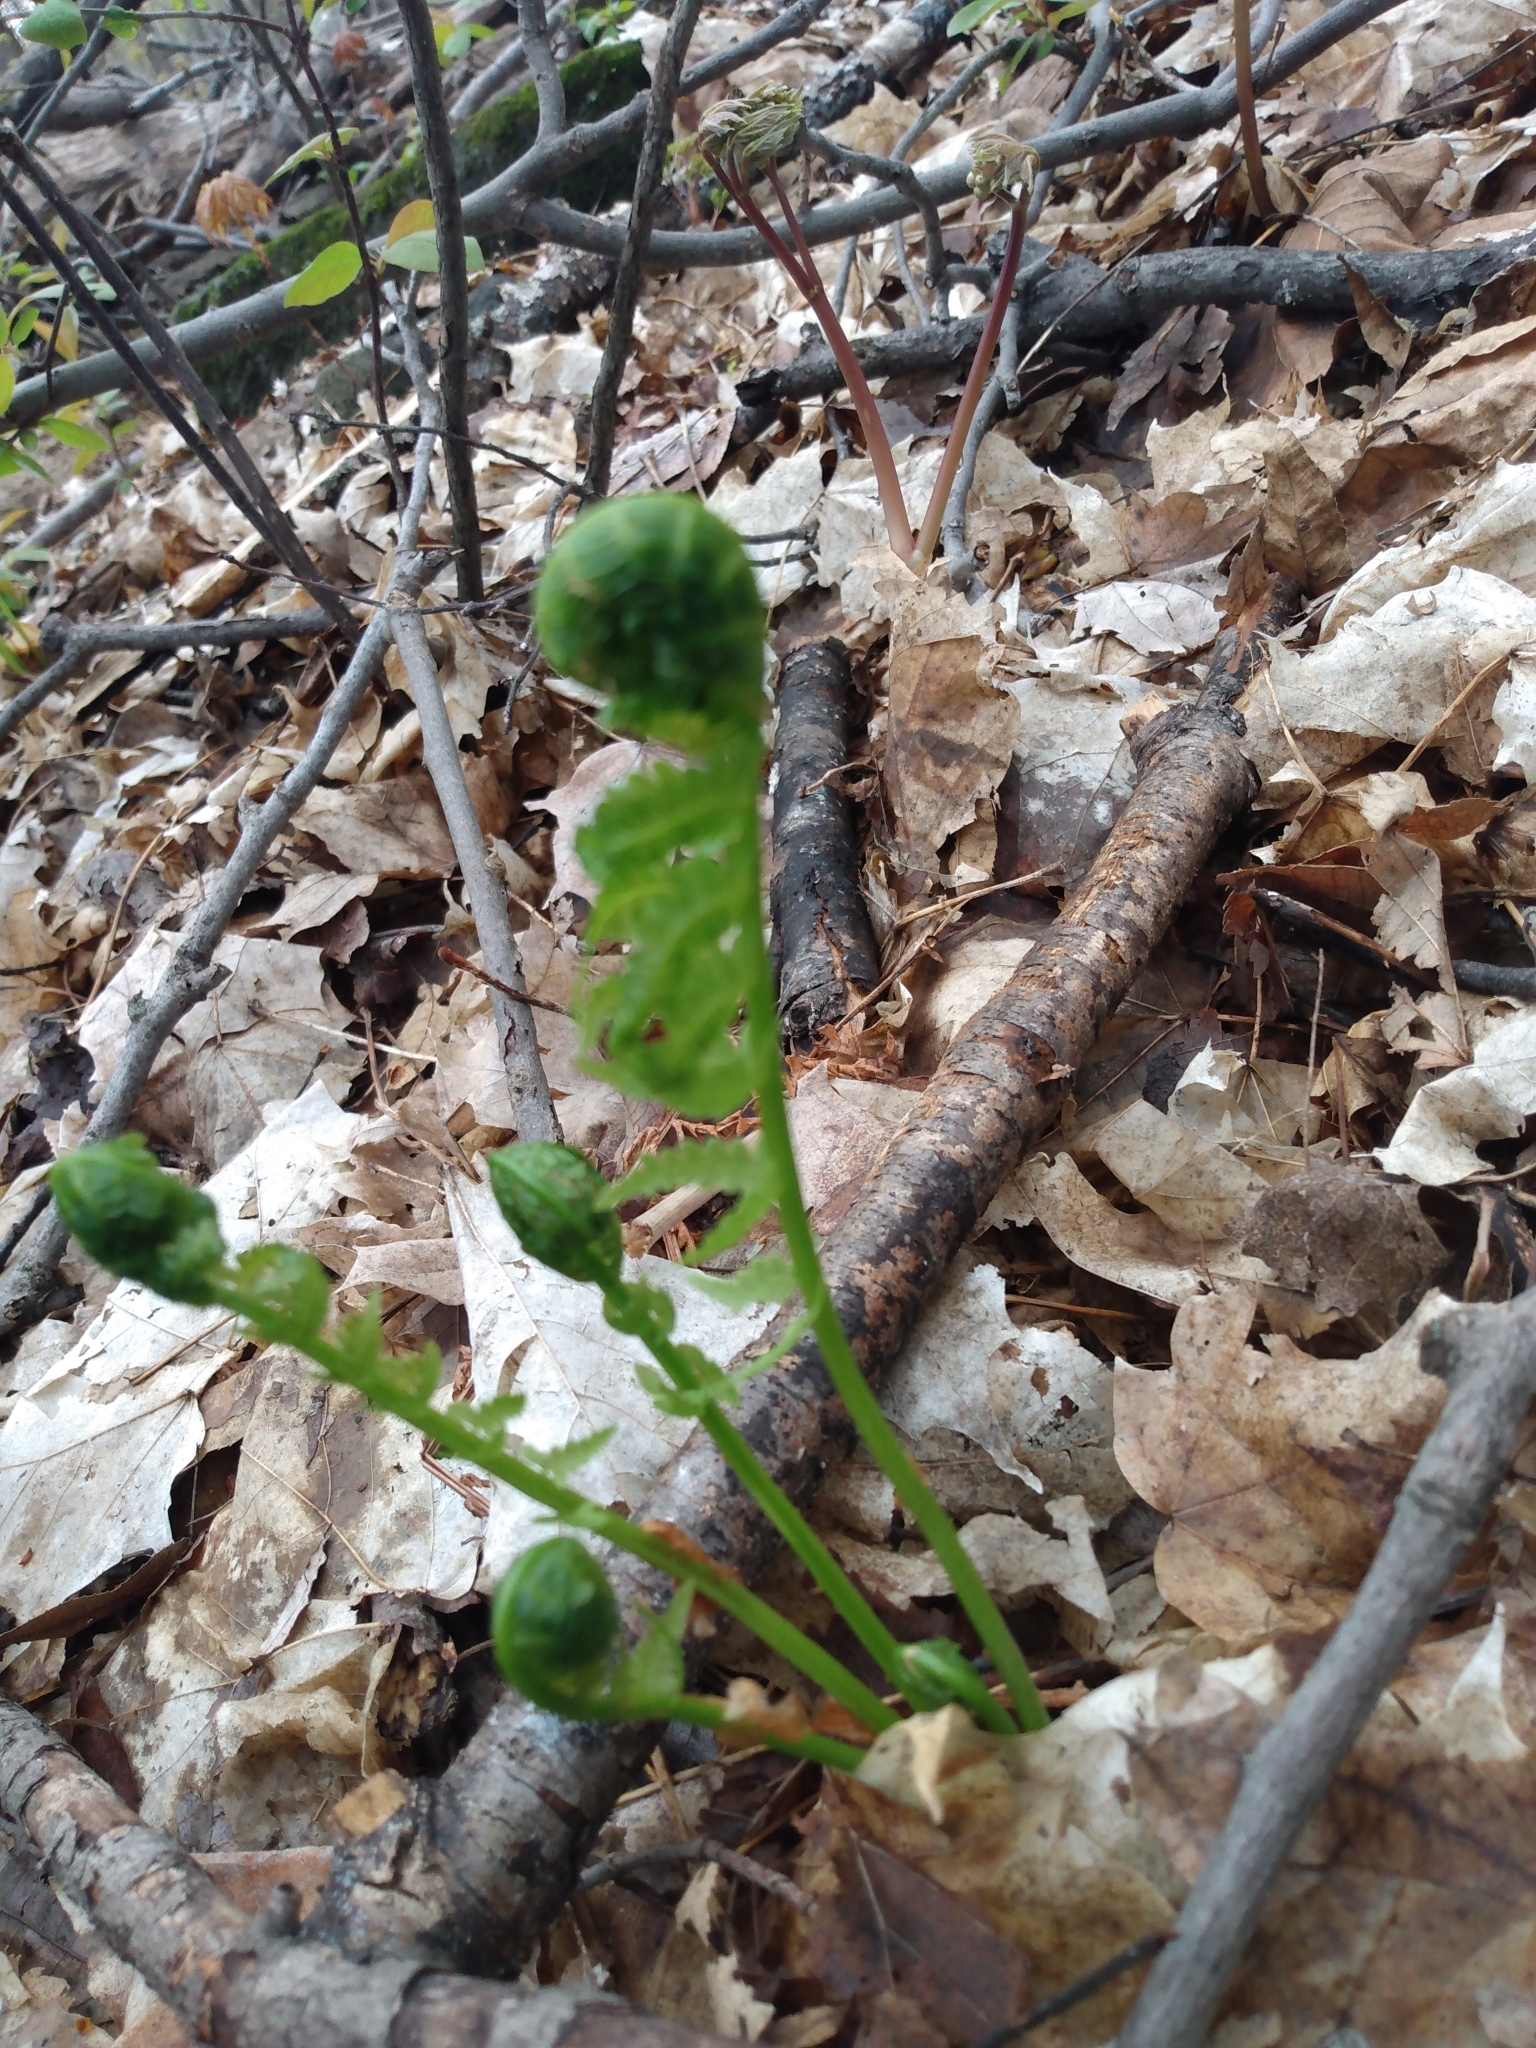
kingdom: Plantae
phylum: Tracheophyta
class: Polypodiopsida
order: Polypodiales
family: Onocleaceae
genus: Matteuccia
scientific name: Matteuccia struthiopteris
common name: Ostrich fern
